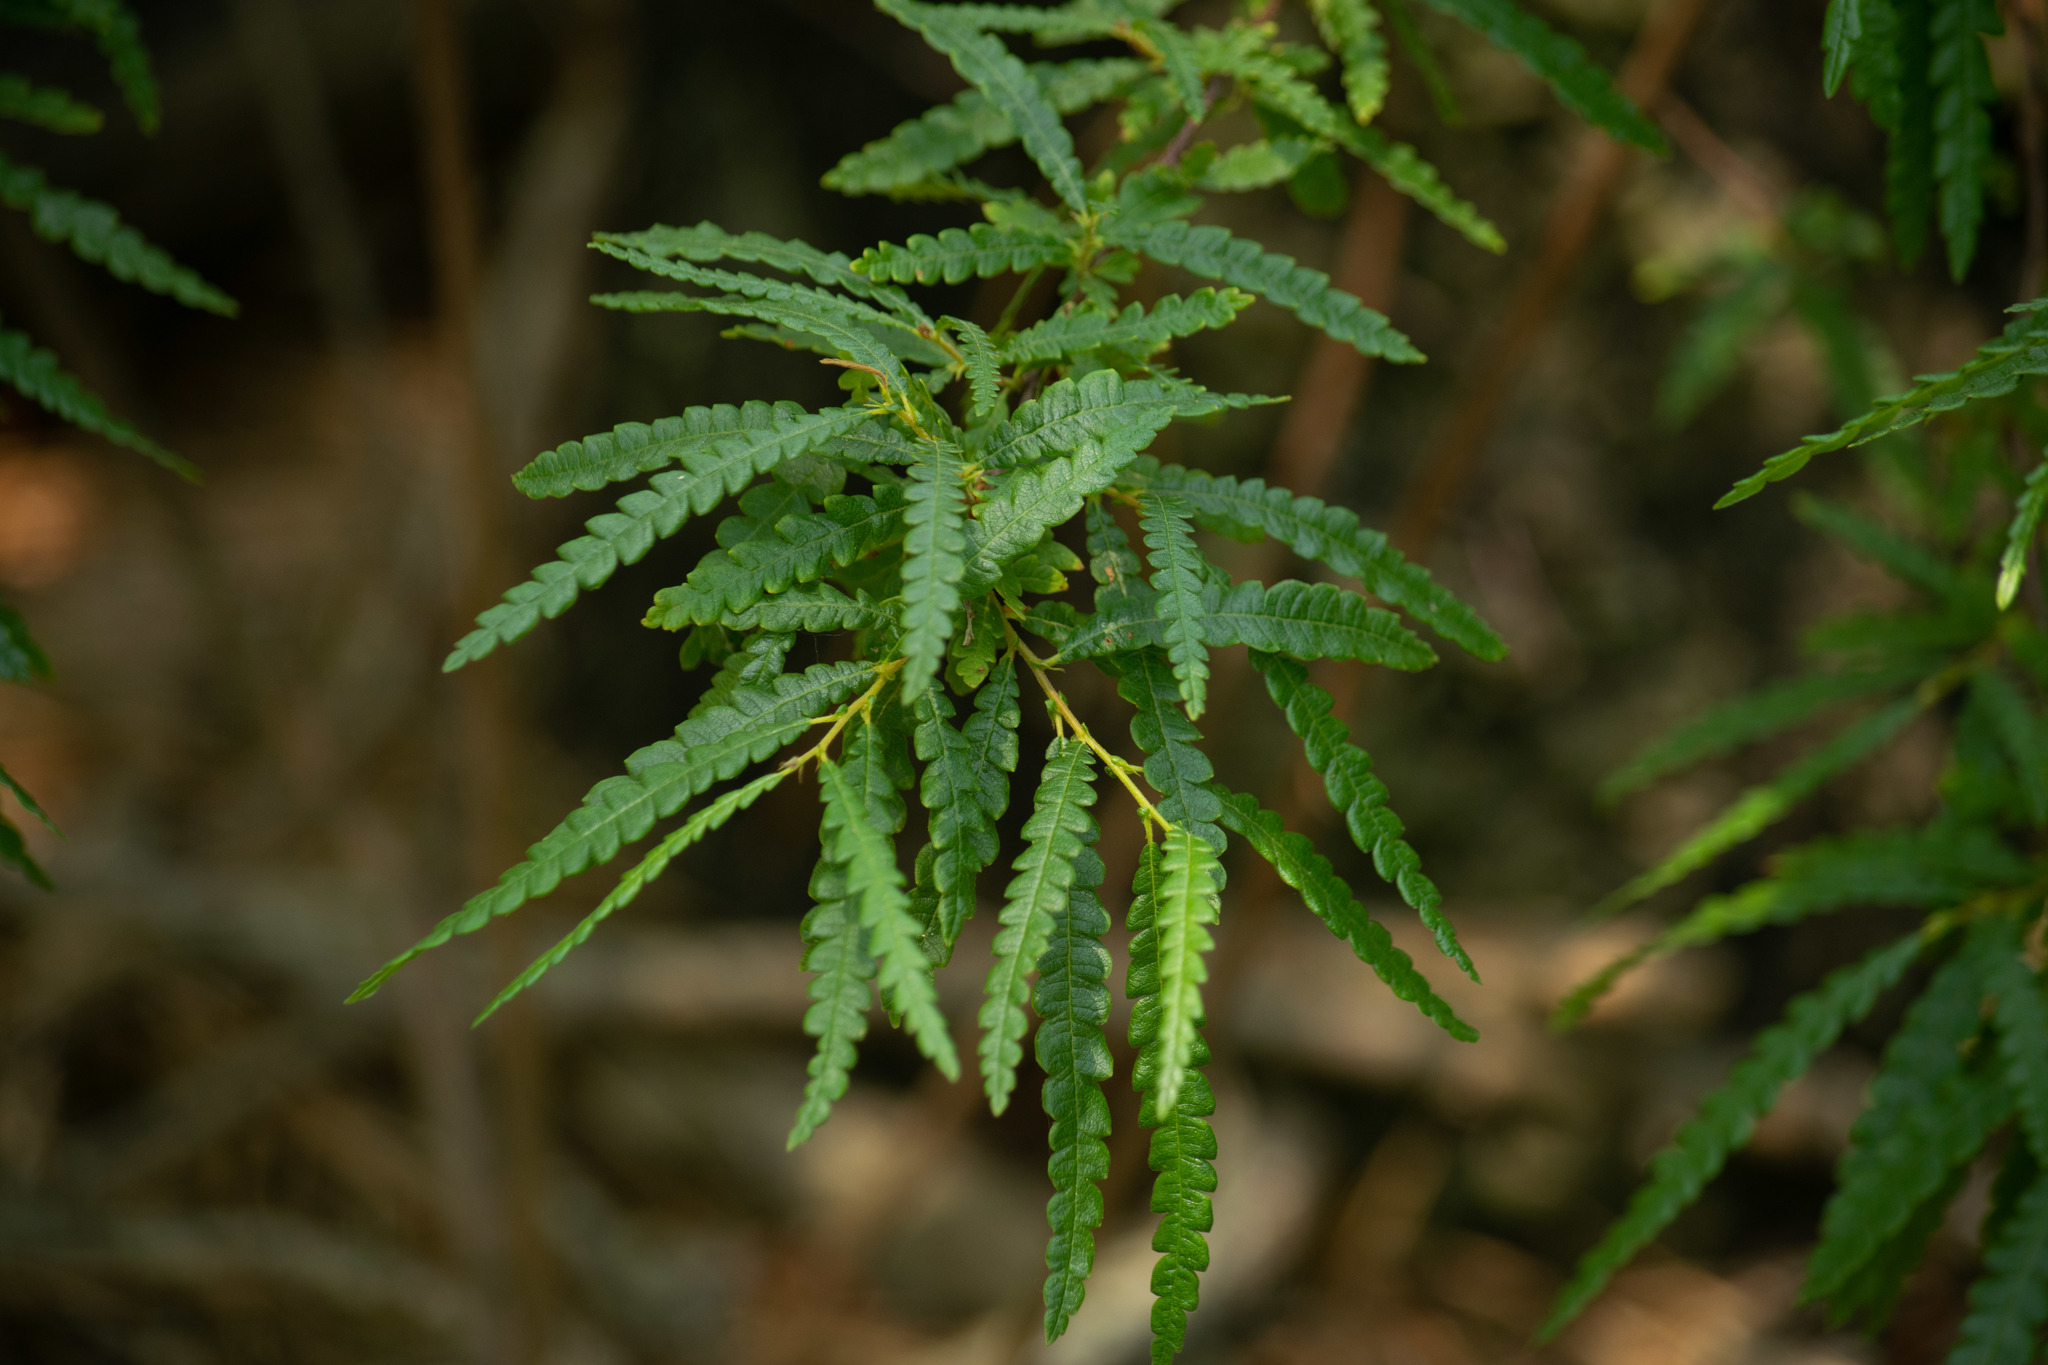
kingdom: Plantae
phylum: Tracheophyta
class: Magnoliopsida
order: Fagales
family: Myricaceae
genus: Comptonia
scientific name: Comptonia peregrina
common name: Sweet-fern
